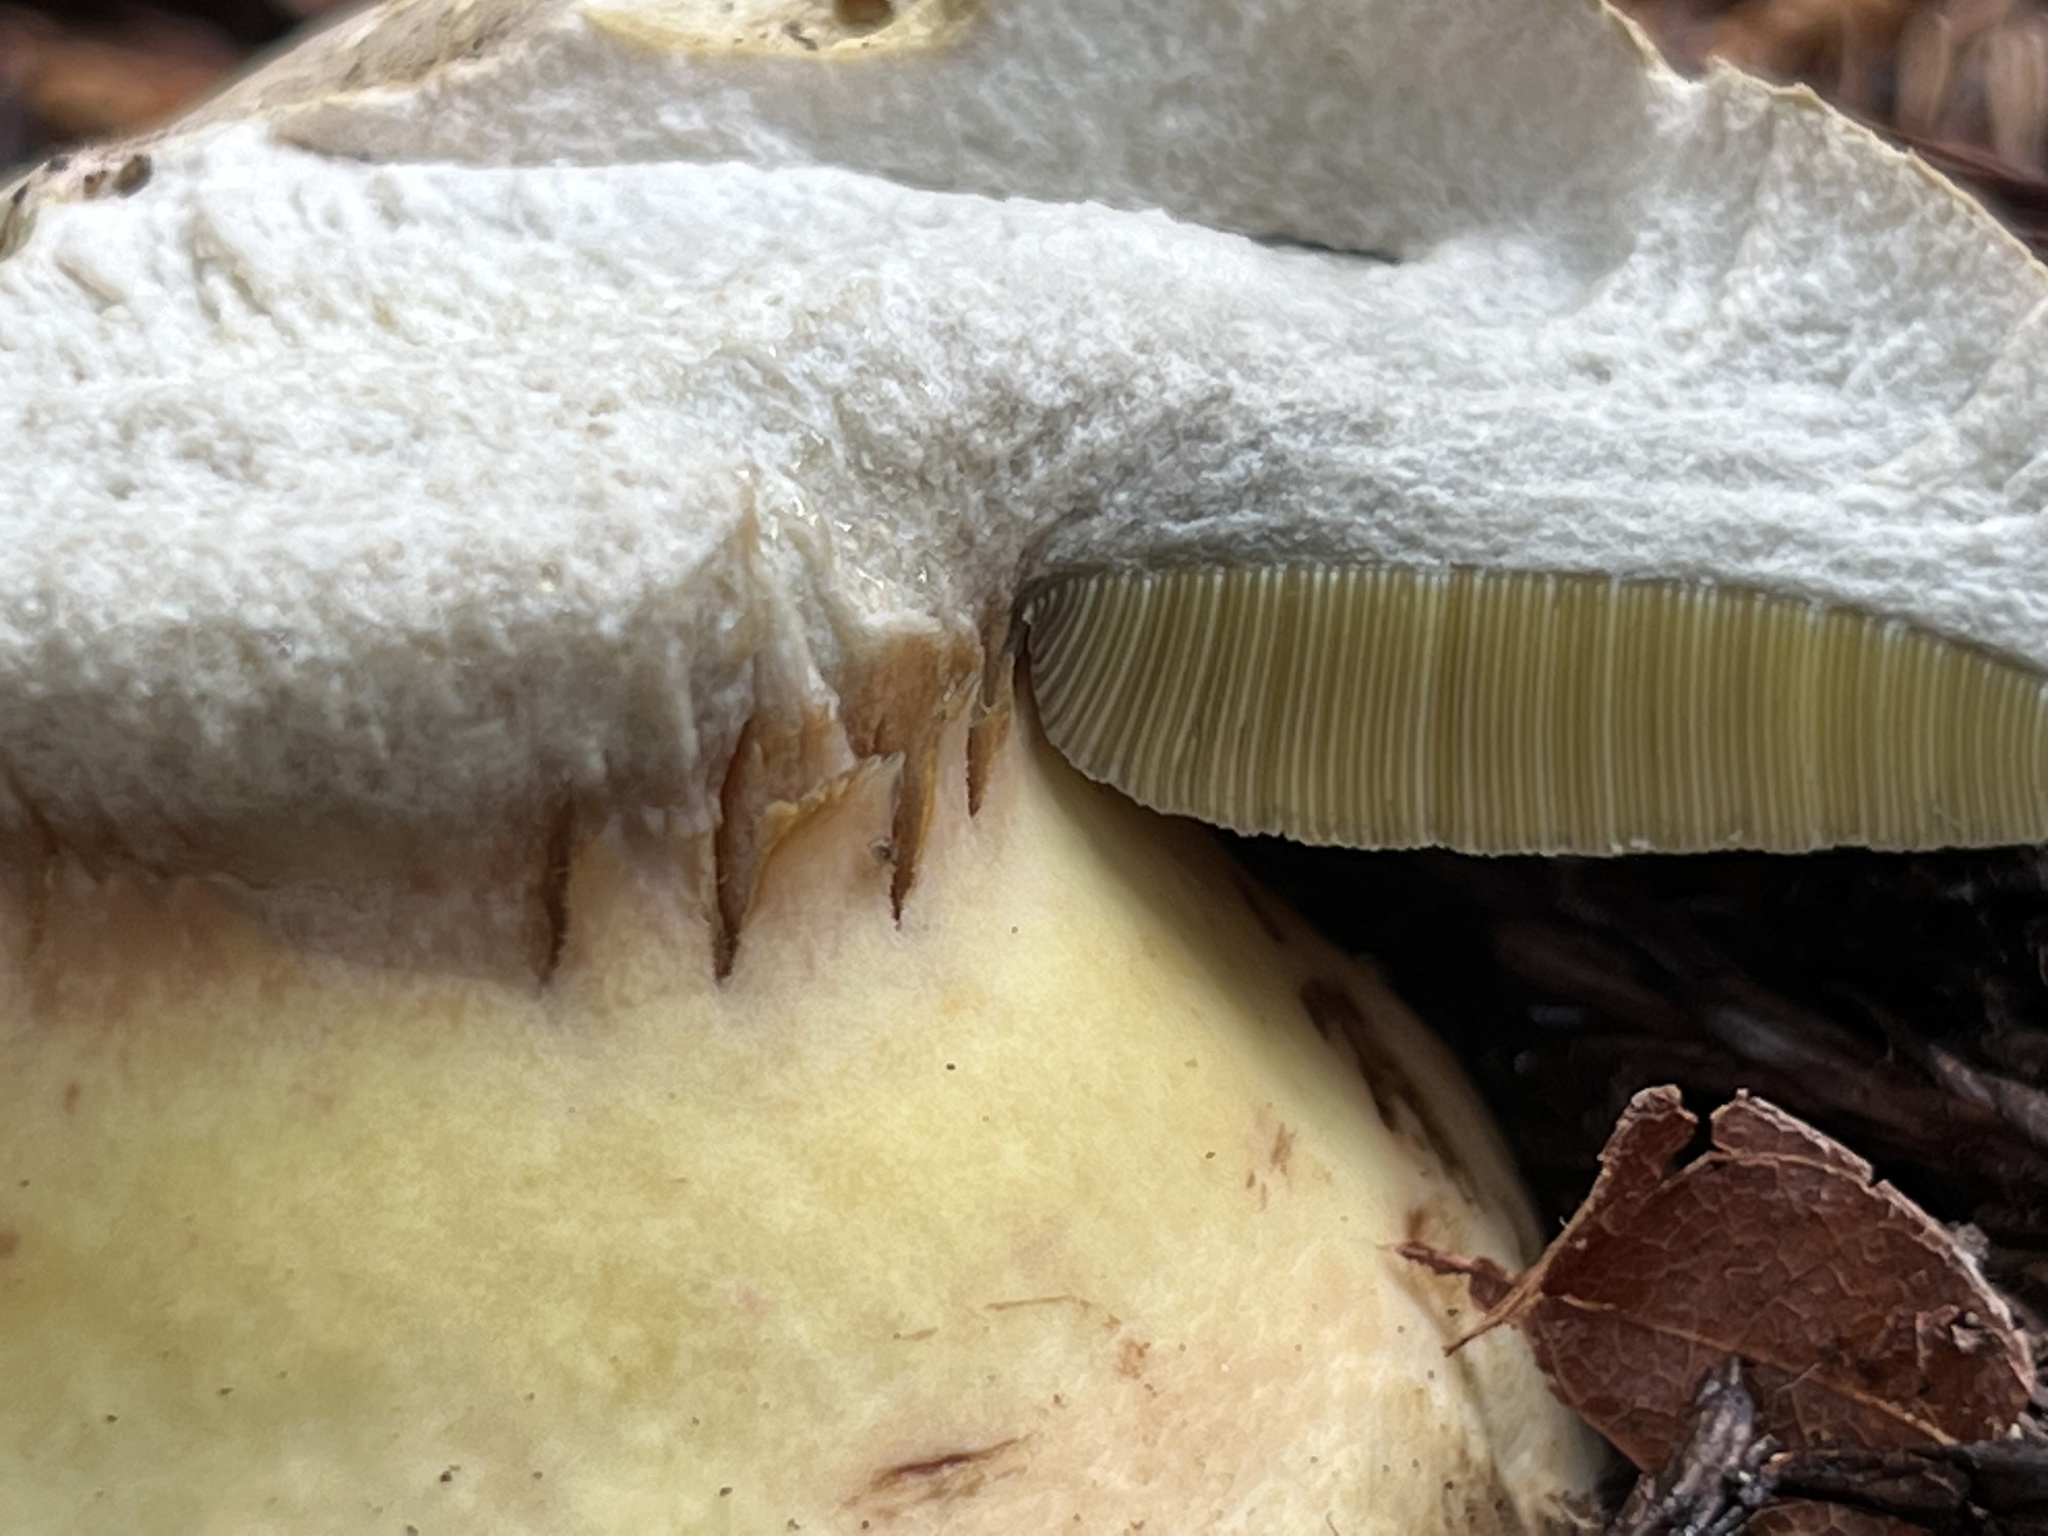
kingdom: Fungi
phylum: Basidiomycota
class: Agaricomycetes
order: Boletales
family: Boletaceae
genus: Caloboletus
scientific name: Caloboletus marshii
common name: Ben's bitter bolete
